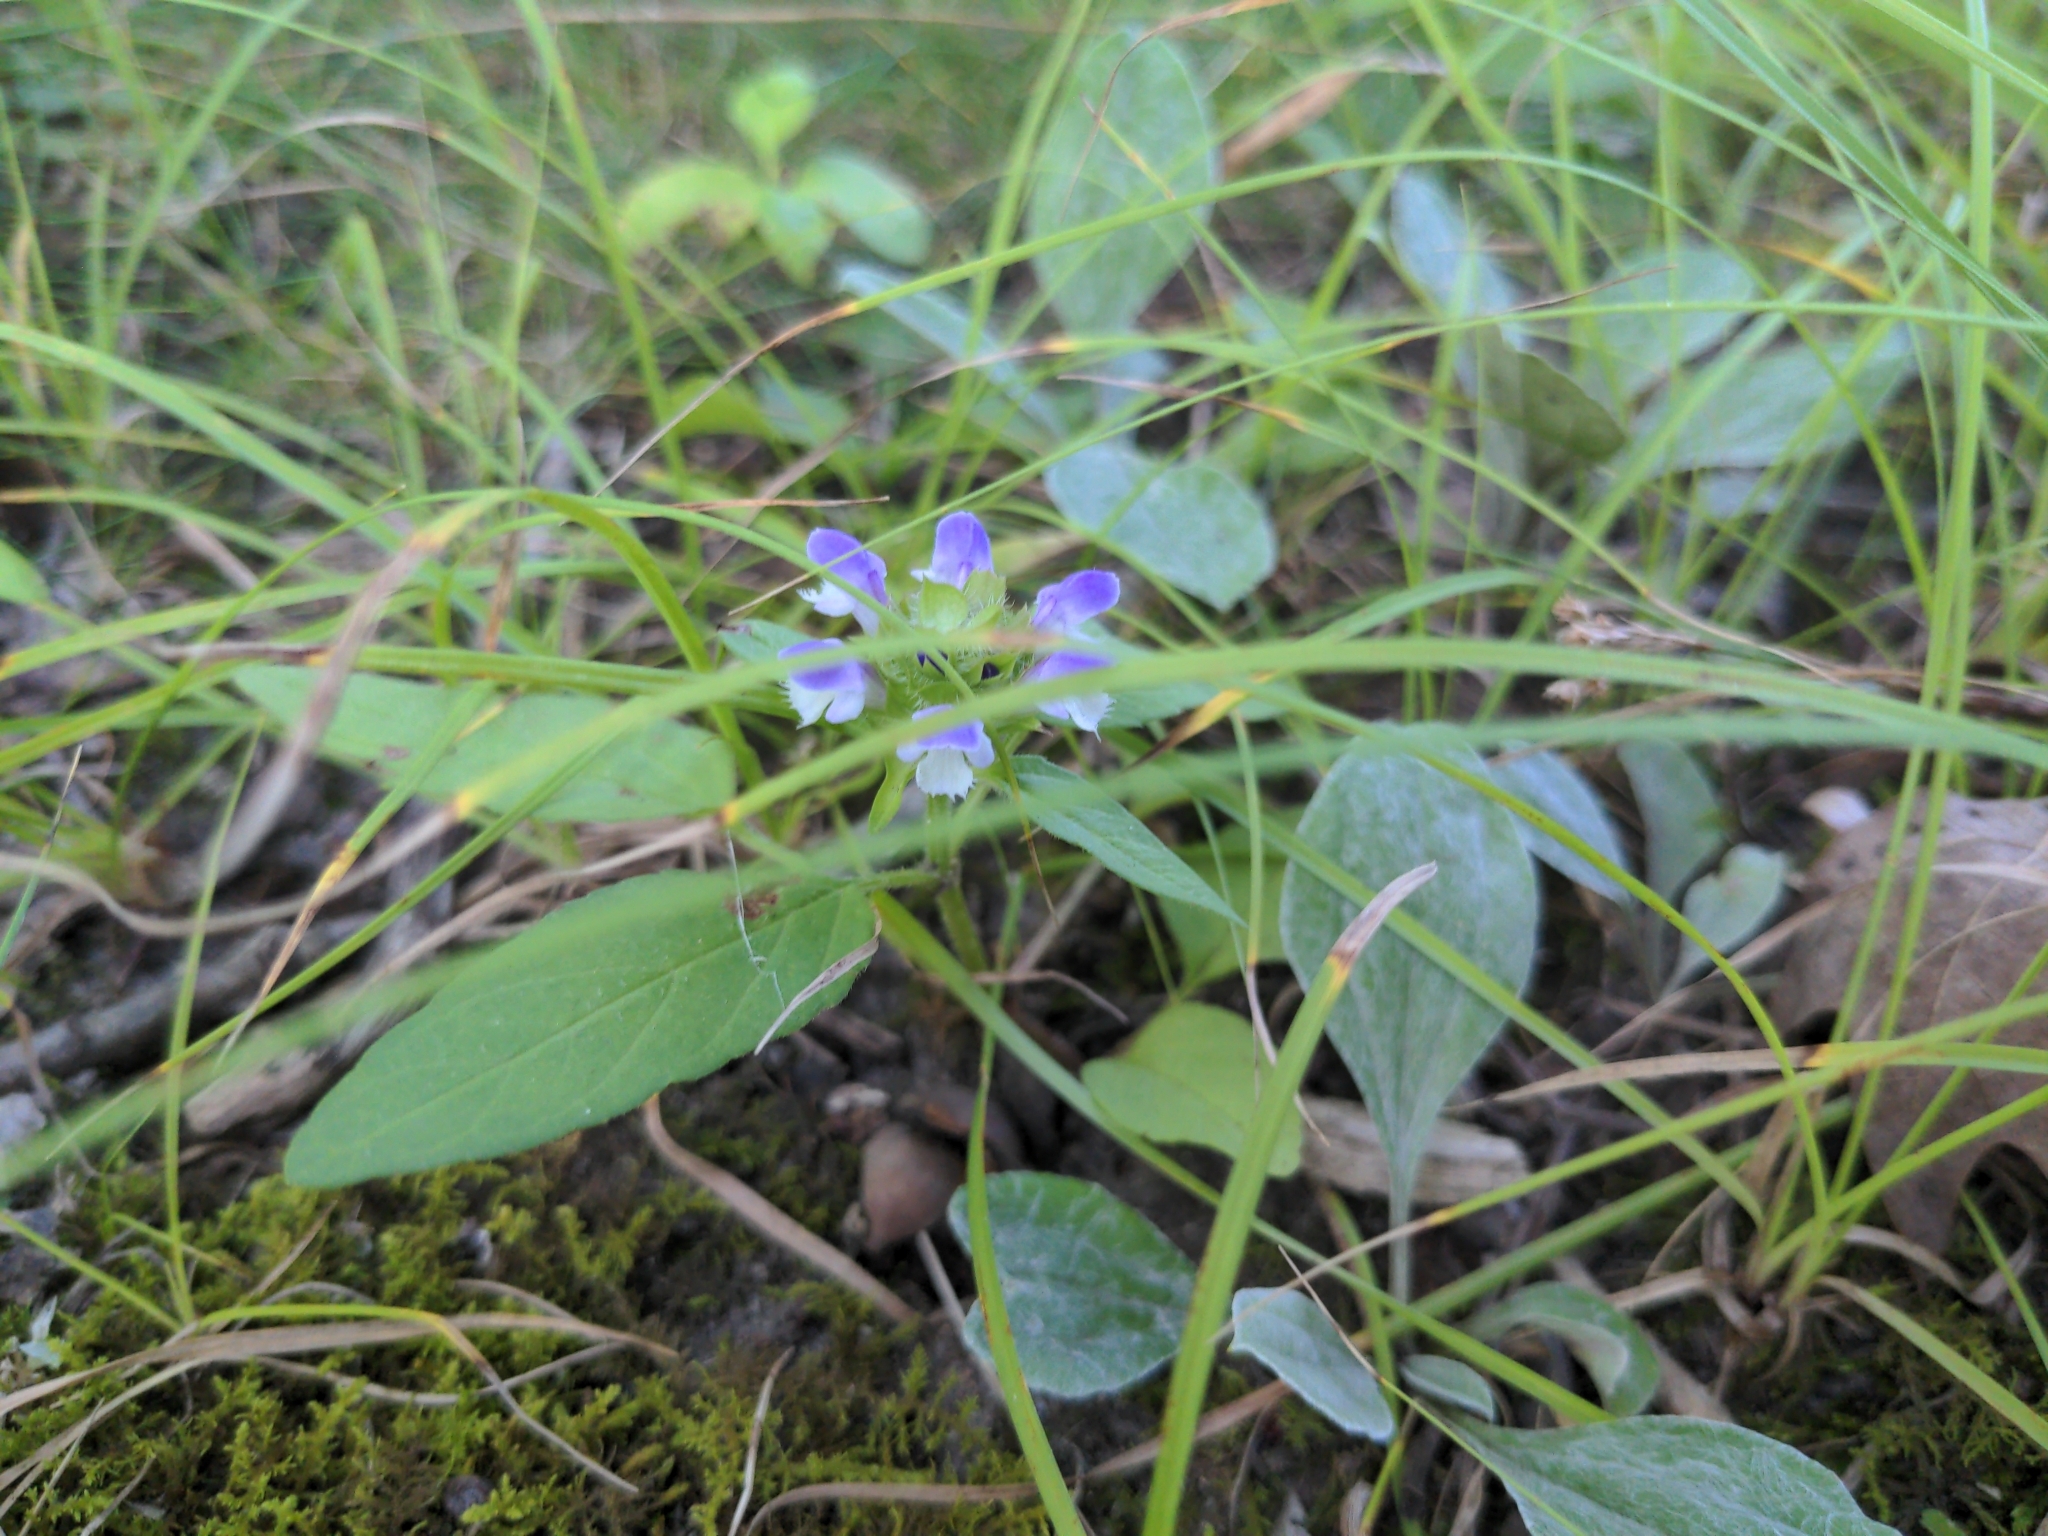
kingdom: Plantae
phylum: Tracheophyta
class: Magnoliopsida
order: Lamiales
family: Lamiaceae
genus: Prunella
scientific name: Prunella vulgaris
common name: Heal-all
